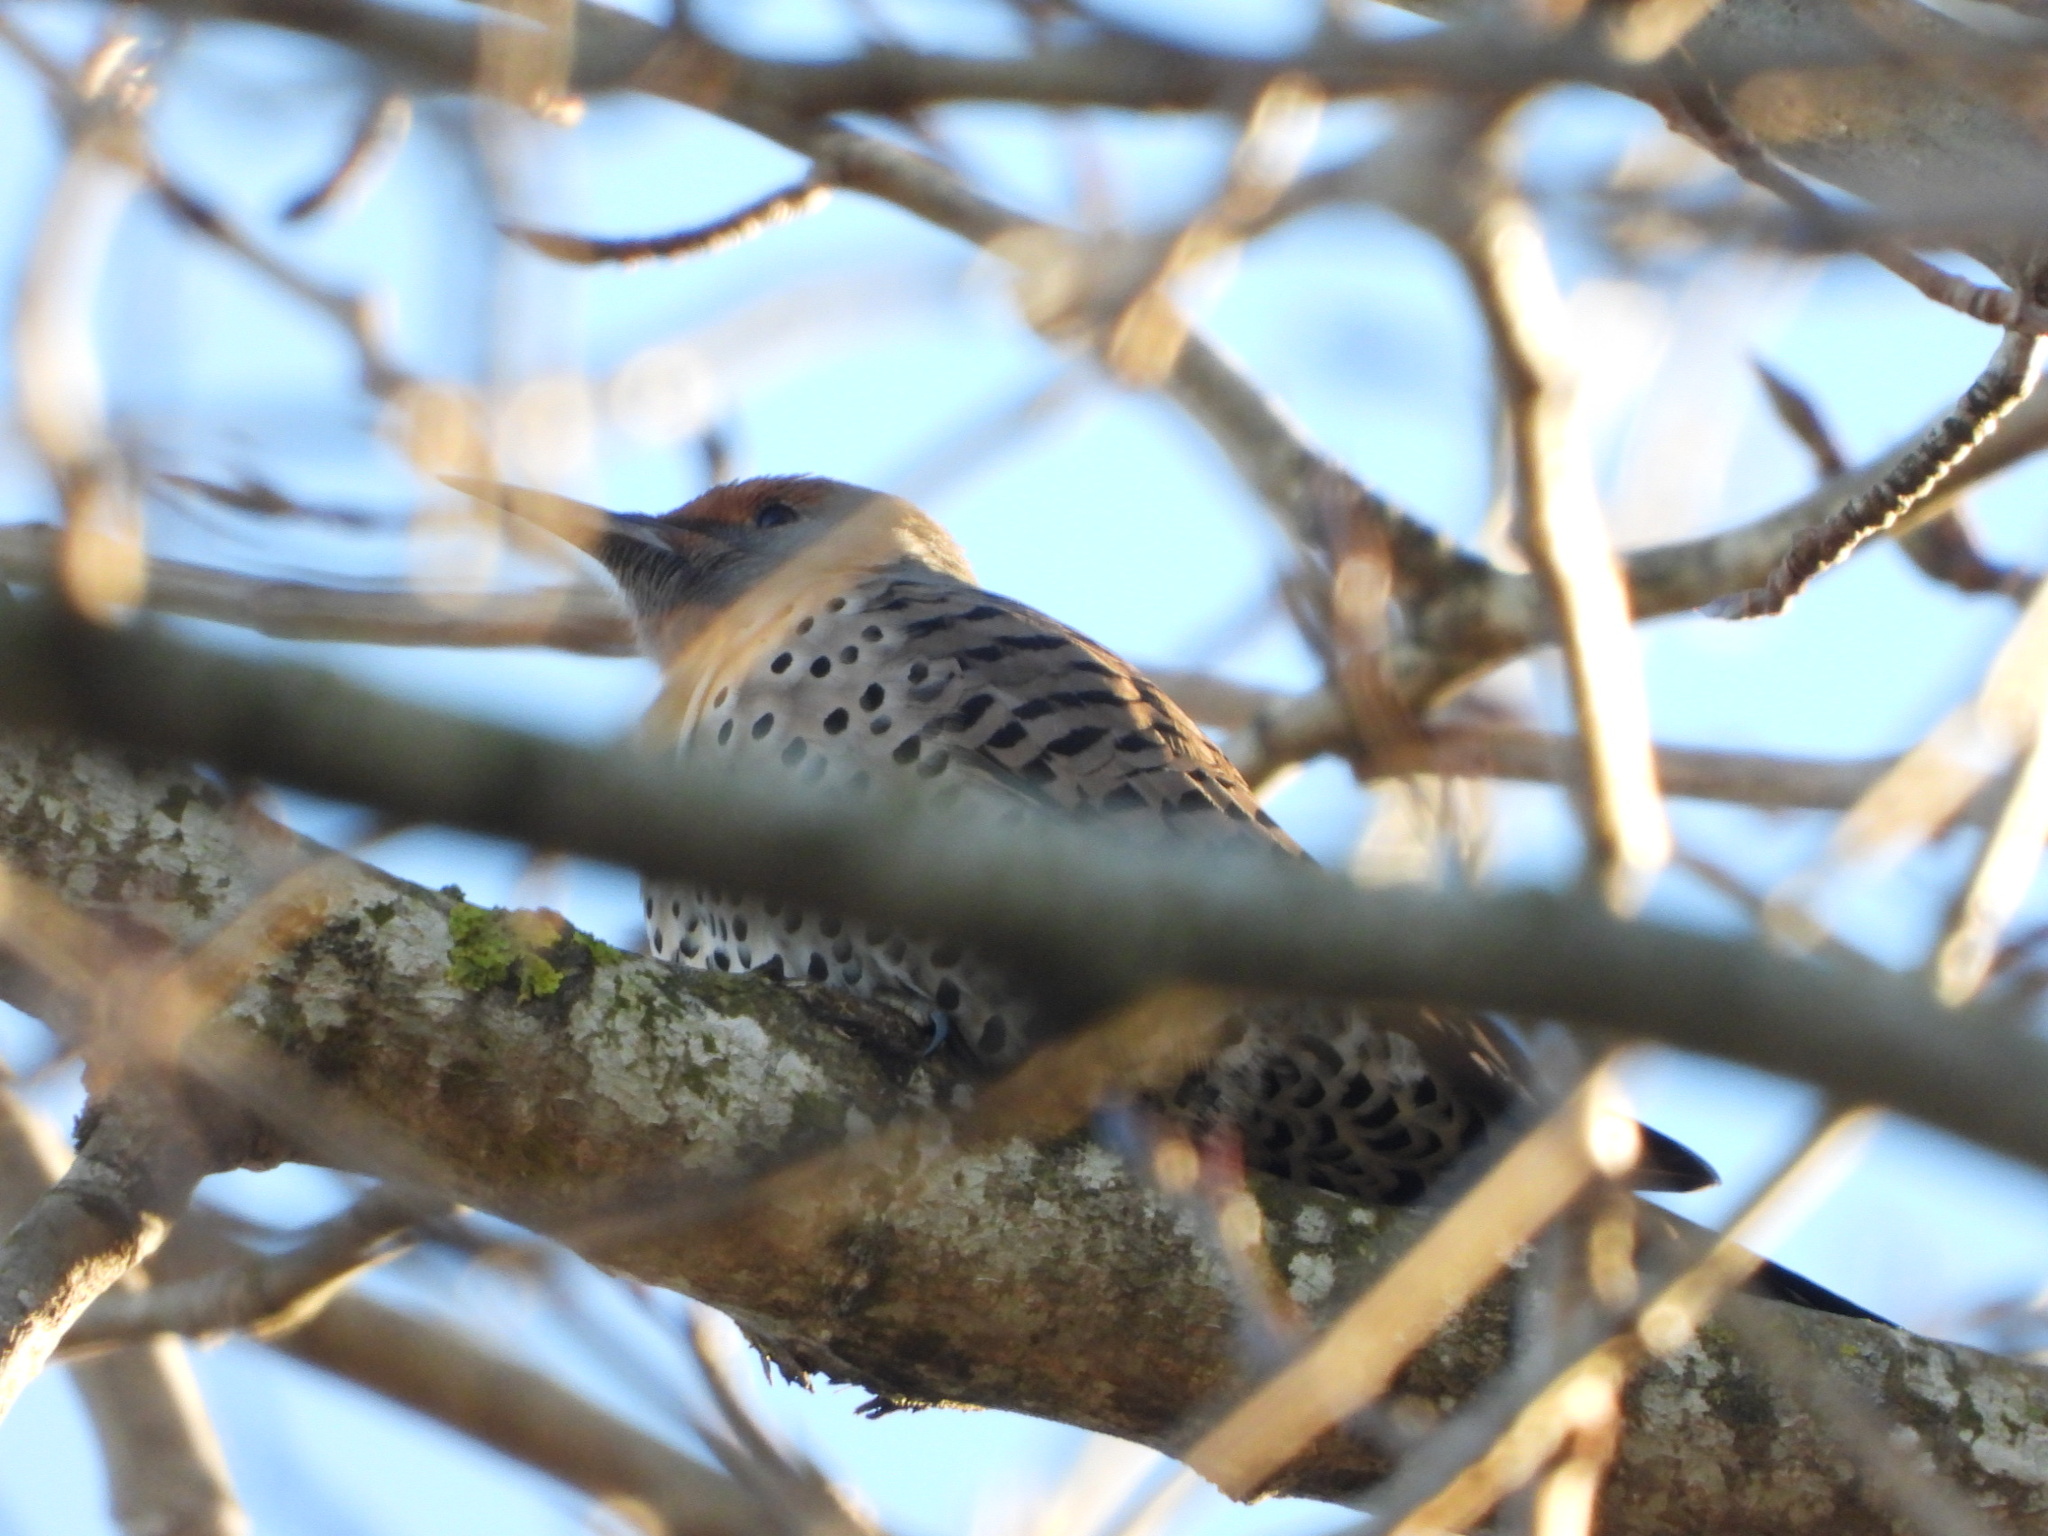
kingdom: Animalia
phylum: Chordata
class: Aves
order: Piciformes
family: Picidae
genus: Colaptes
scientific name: Colaptes auratus
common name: Northern flicker
